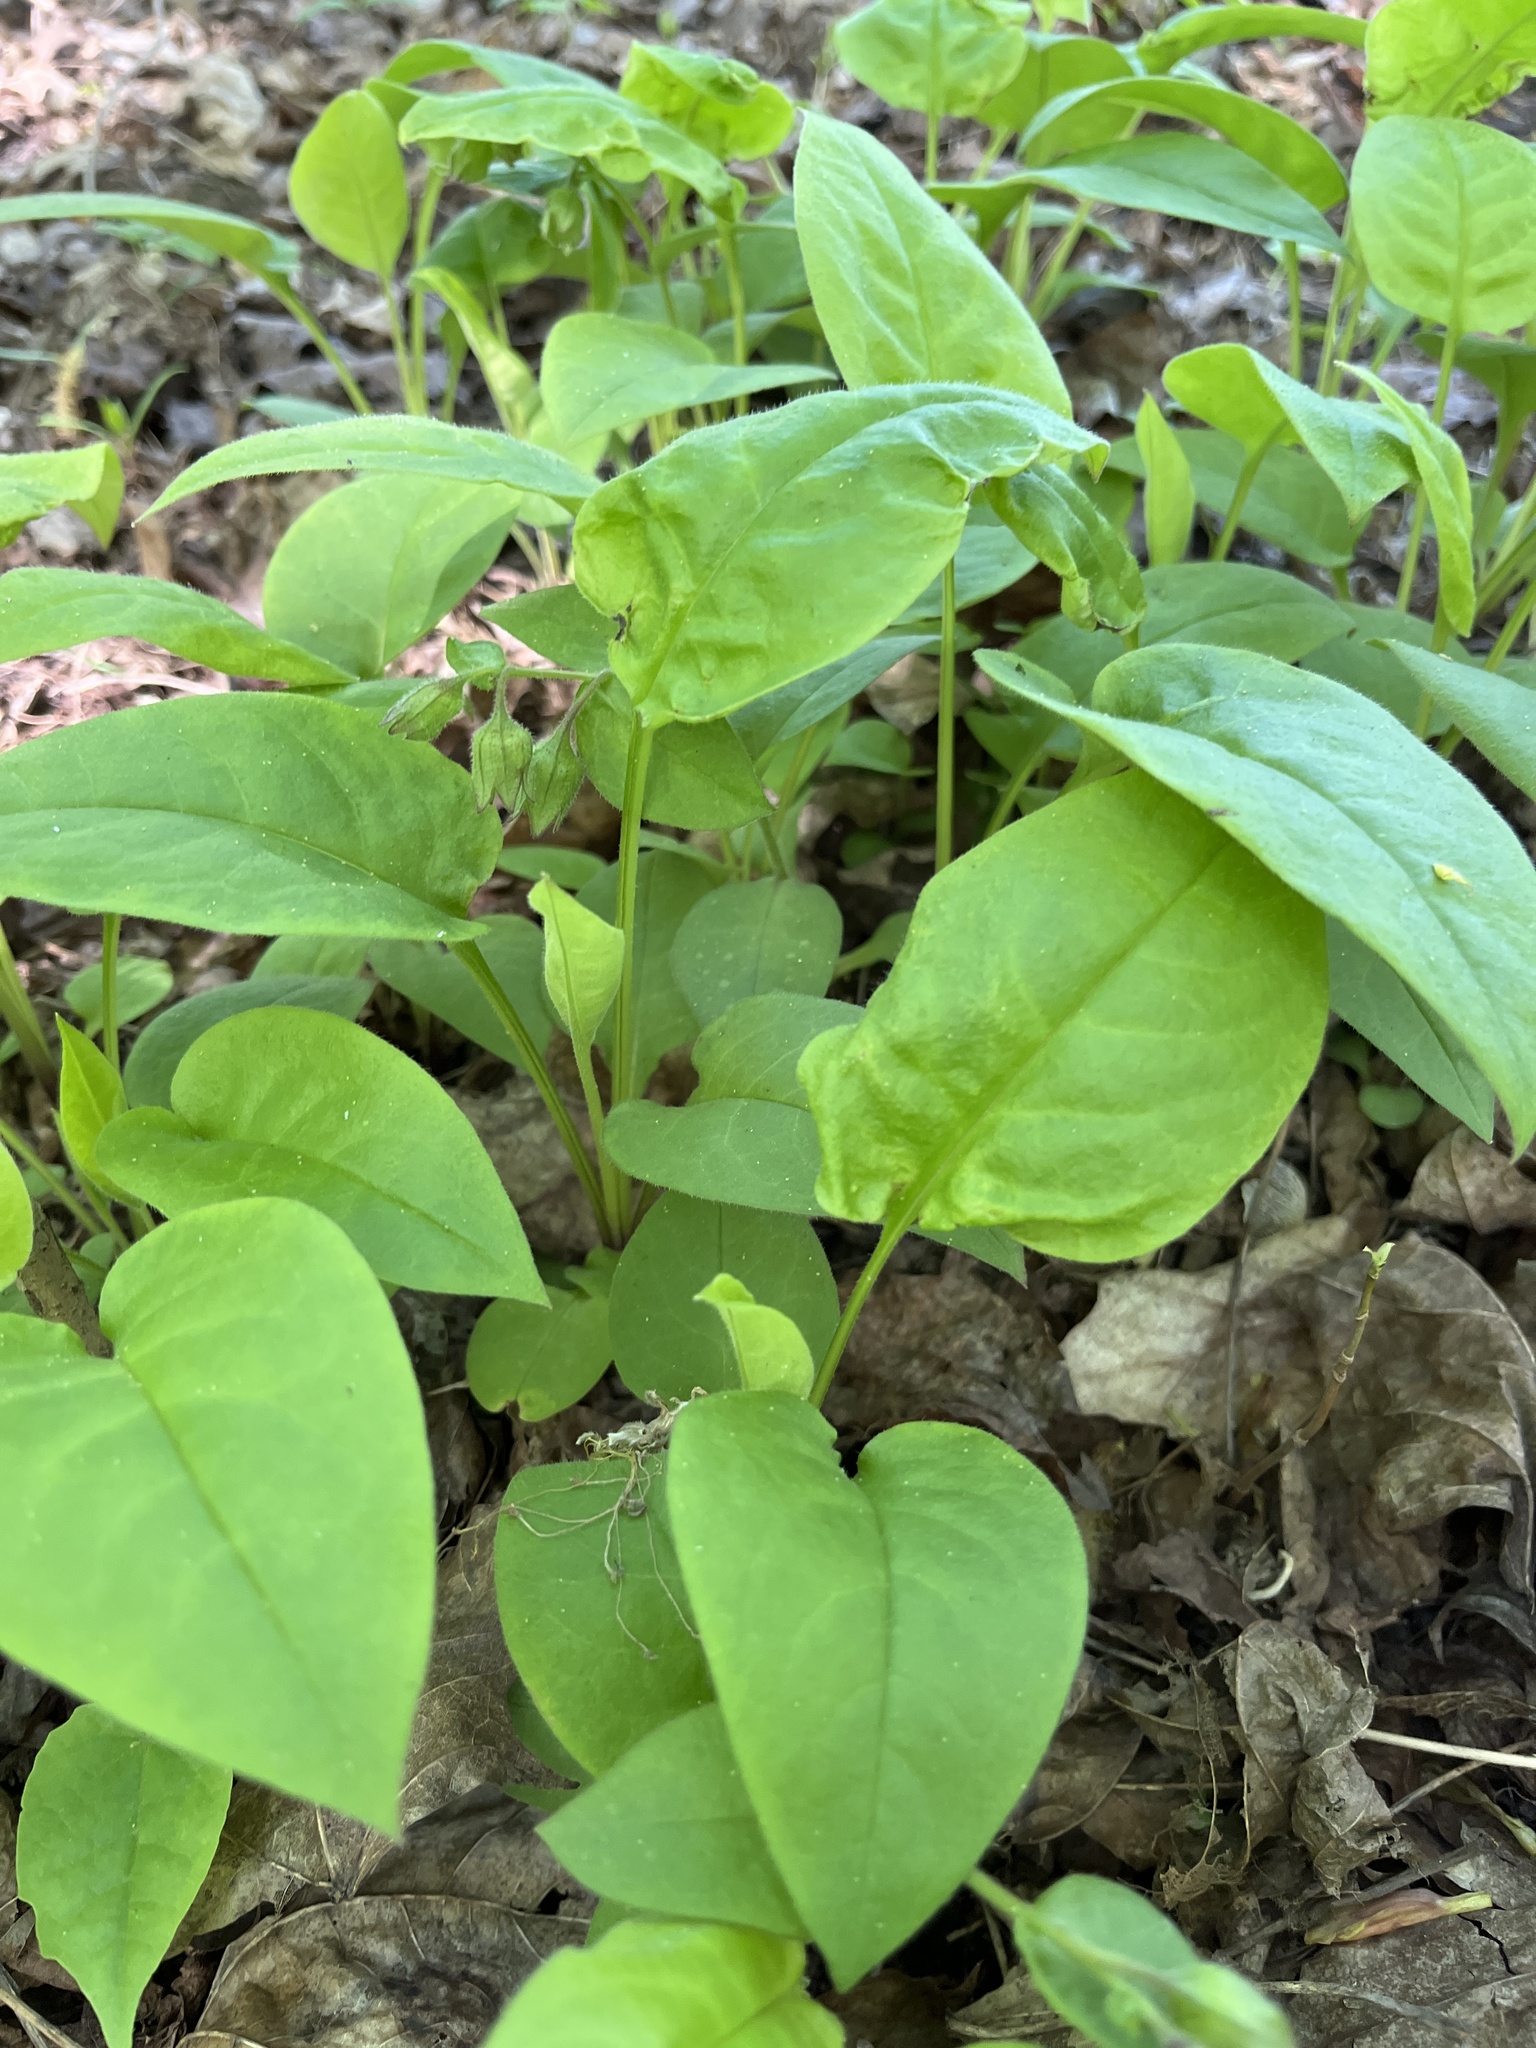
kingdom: Plantae
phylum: Tracheophyta
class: Magnoliopsida
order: Boraginales
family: Boraginaceae
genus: Pulmonaria
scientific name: Pulmonaria obscura
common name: Suffolk lungwort
